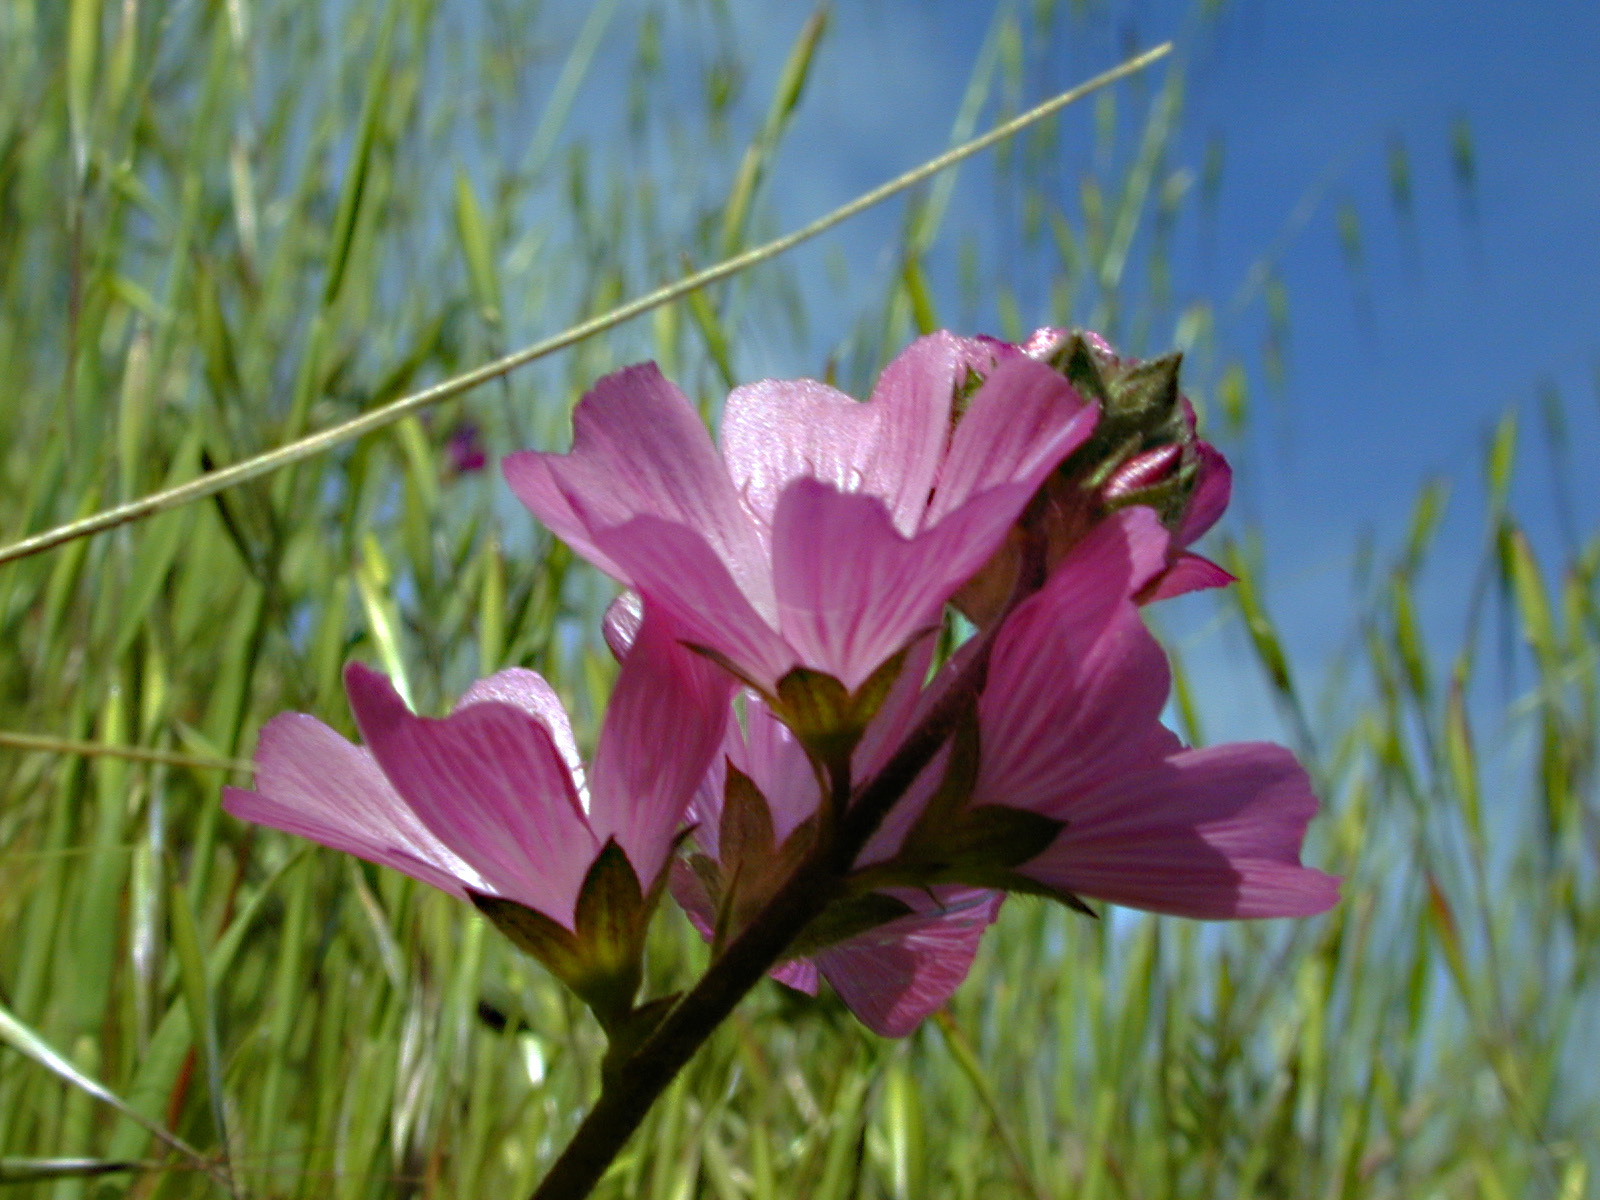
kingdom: Plantae
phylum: Tracheophyta
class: Magnoliopsida
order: Malvales
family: Malvaceae
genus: Sidalcea
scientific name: Sidalcea malviflora
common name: Greek mallow
